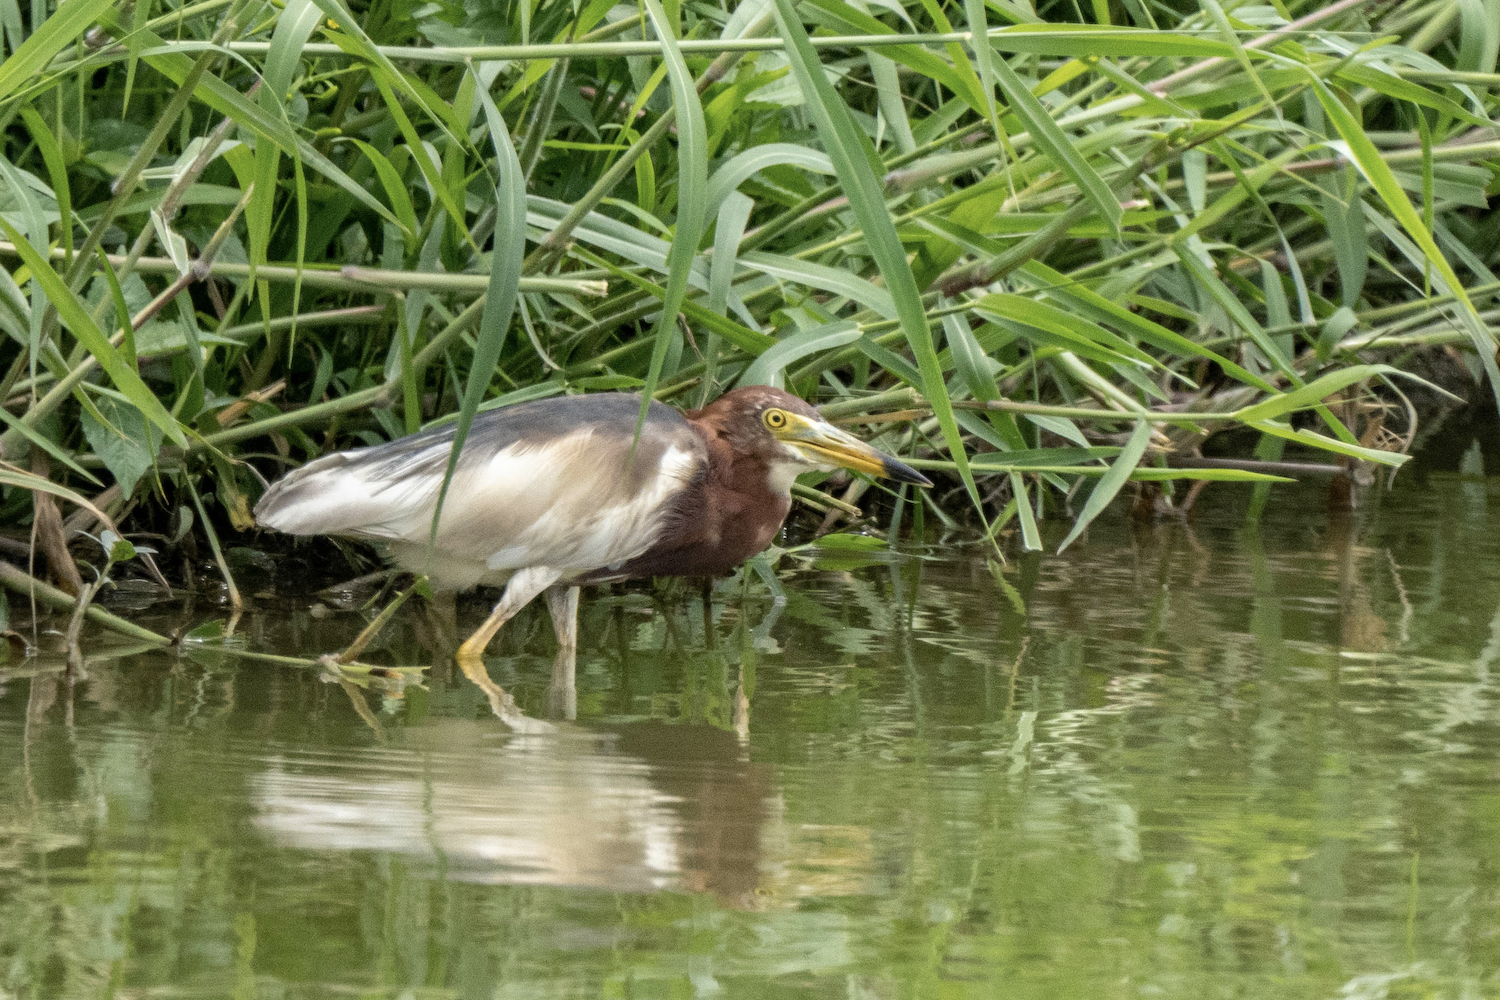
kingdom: Animalia
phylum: Chordata
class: Aves
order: Pelecaniformes
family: Ardeidae
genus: Ardeola
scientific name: Ardeola bacchus
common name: Chinese pond heron
